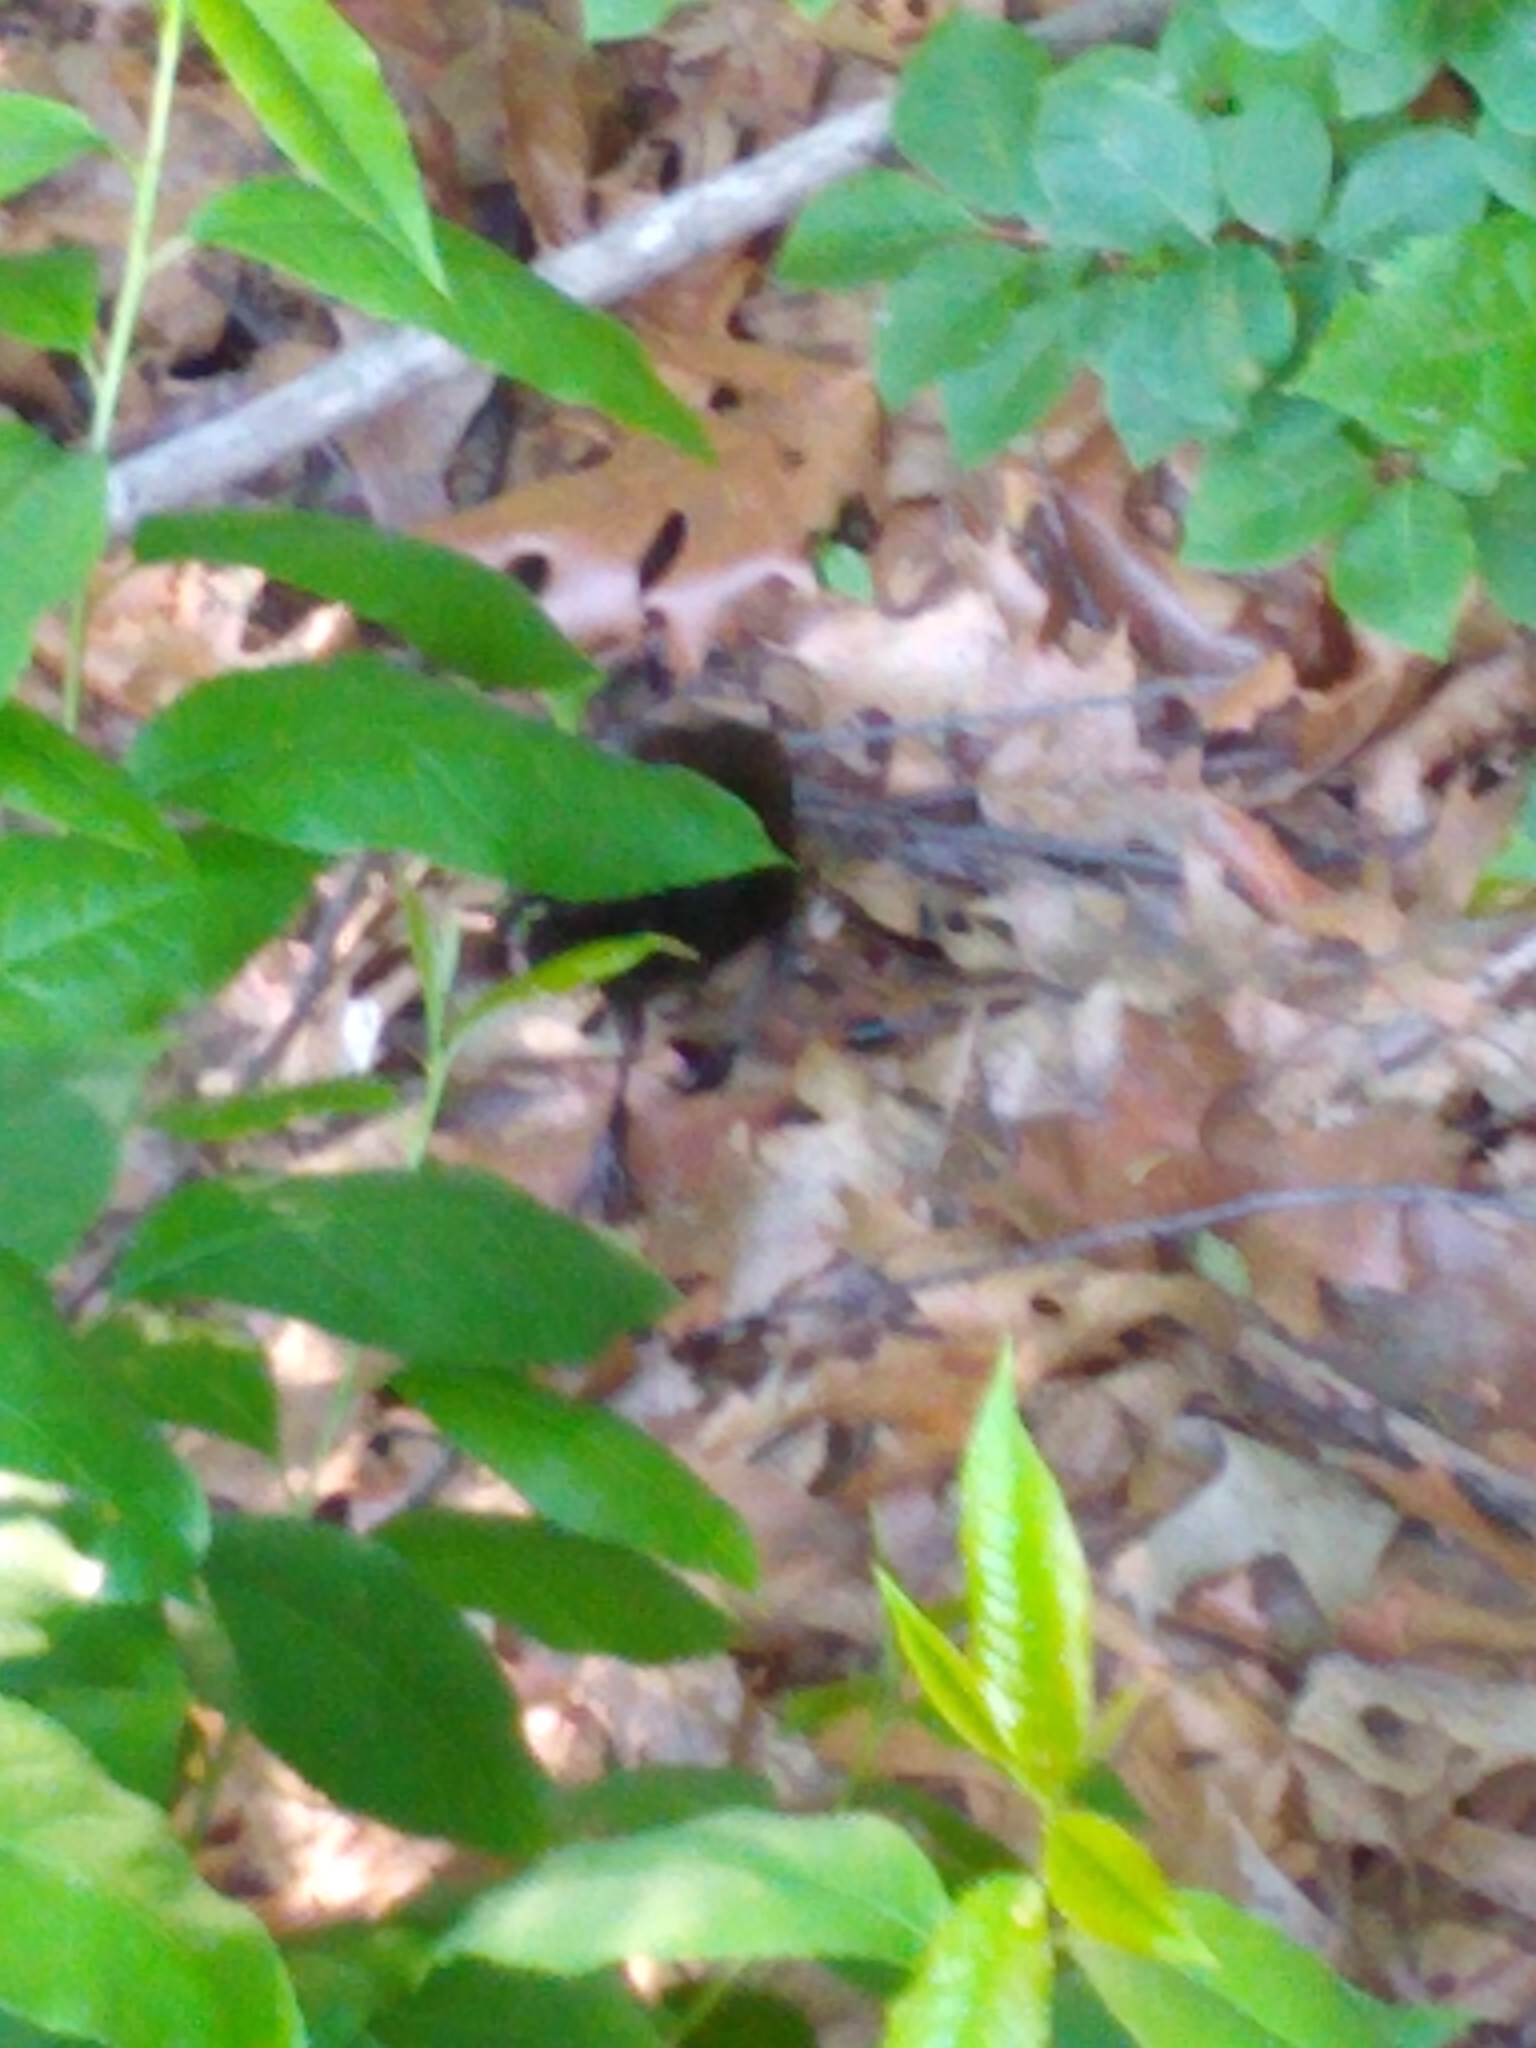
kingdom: Animalia
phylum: Chordata
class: Aves
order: Passeriformes
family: Icteridae
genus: Quiscalus
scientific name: Quiscalus quiscula
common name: Common grackle
